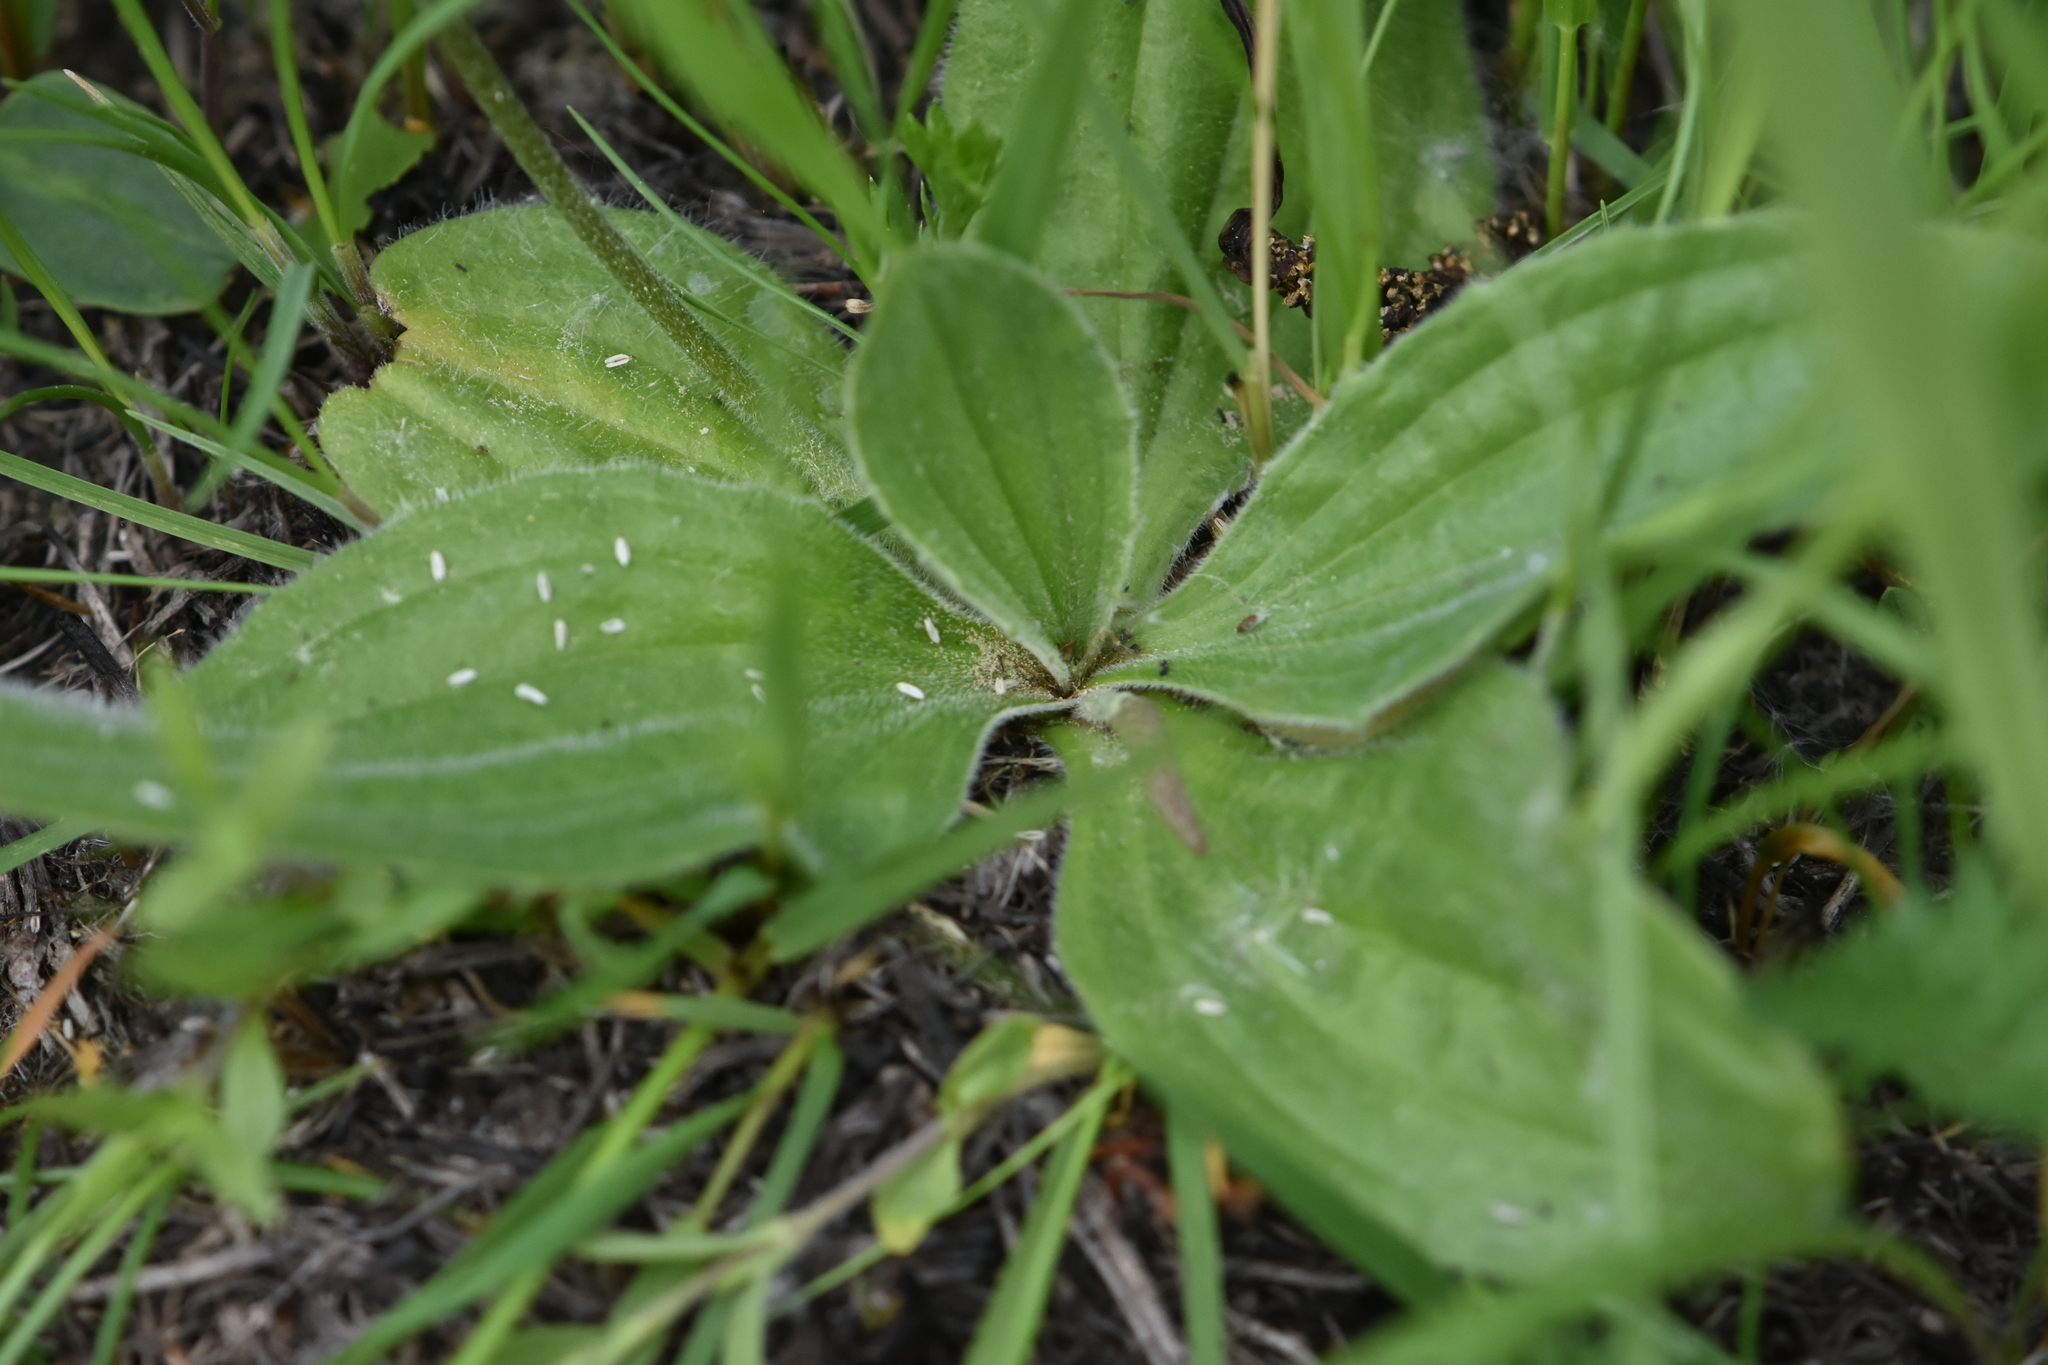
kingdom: Plantae
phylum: Tracheophyta
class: Magnoliopsida
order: Lamiales
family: Plantaginaceae
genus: Plantago
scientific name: Plantago media
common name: Hoary plantain
